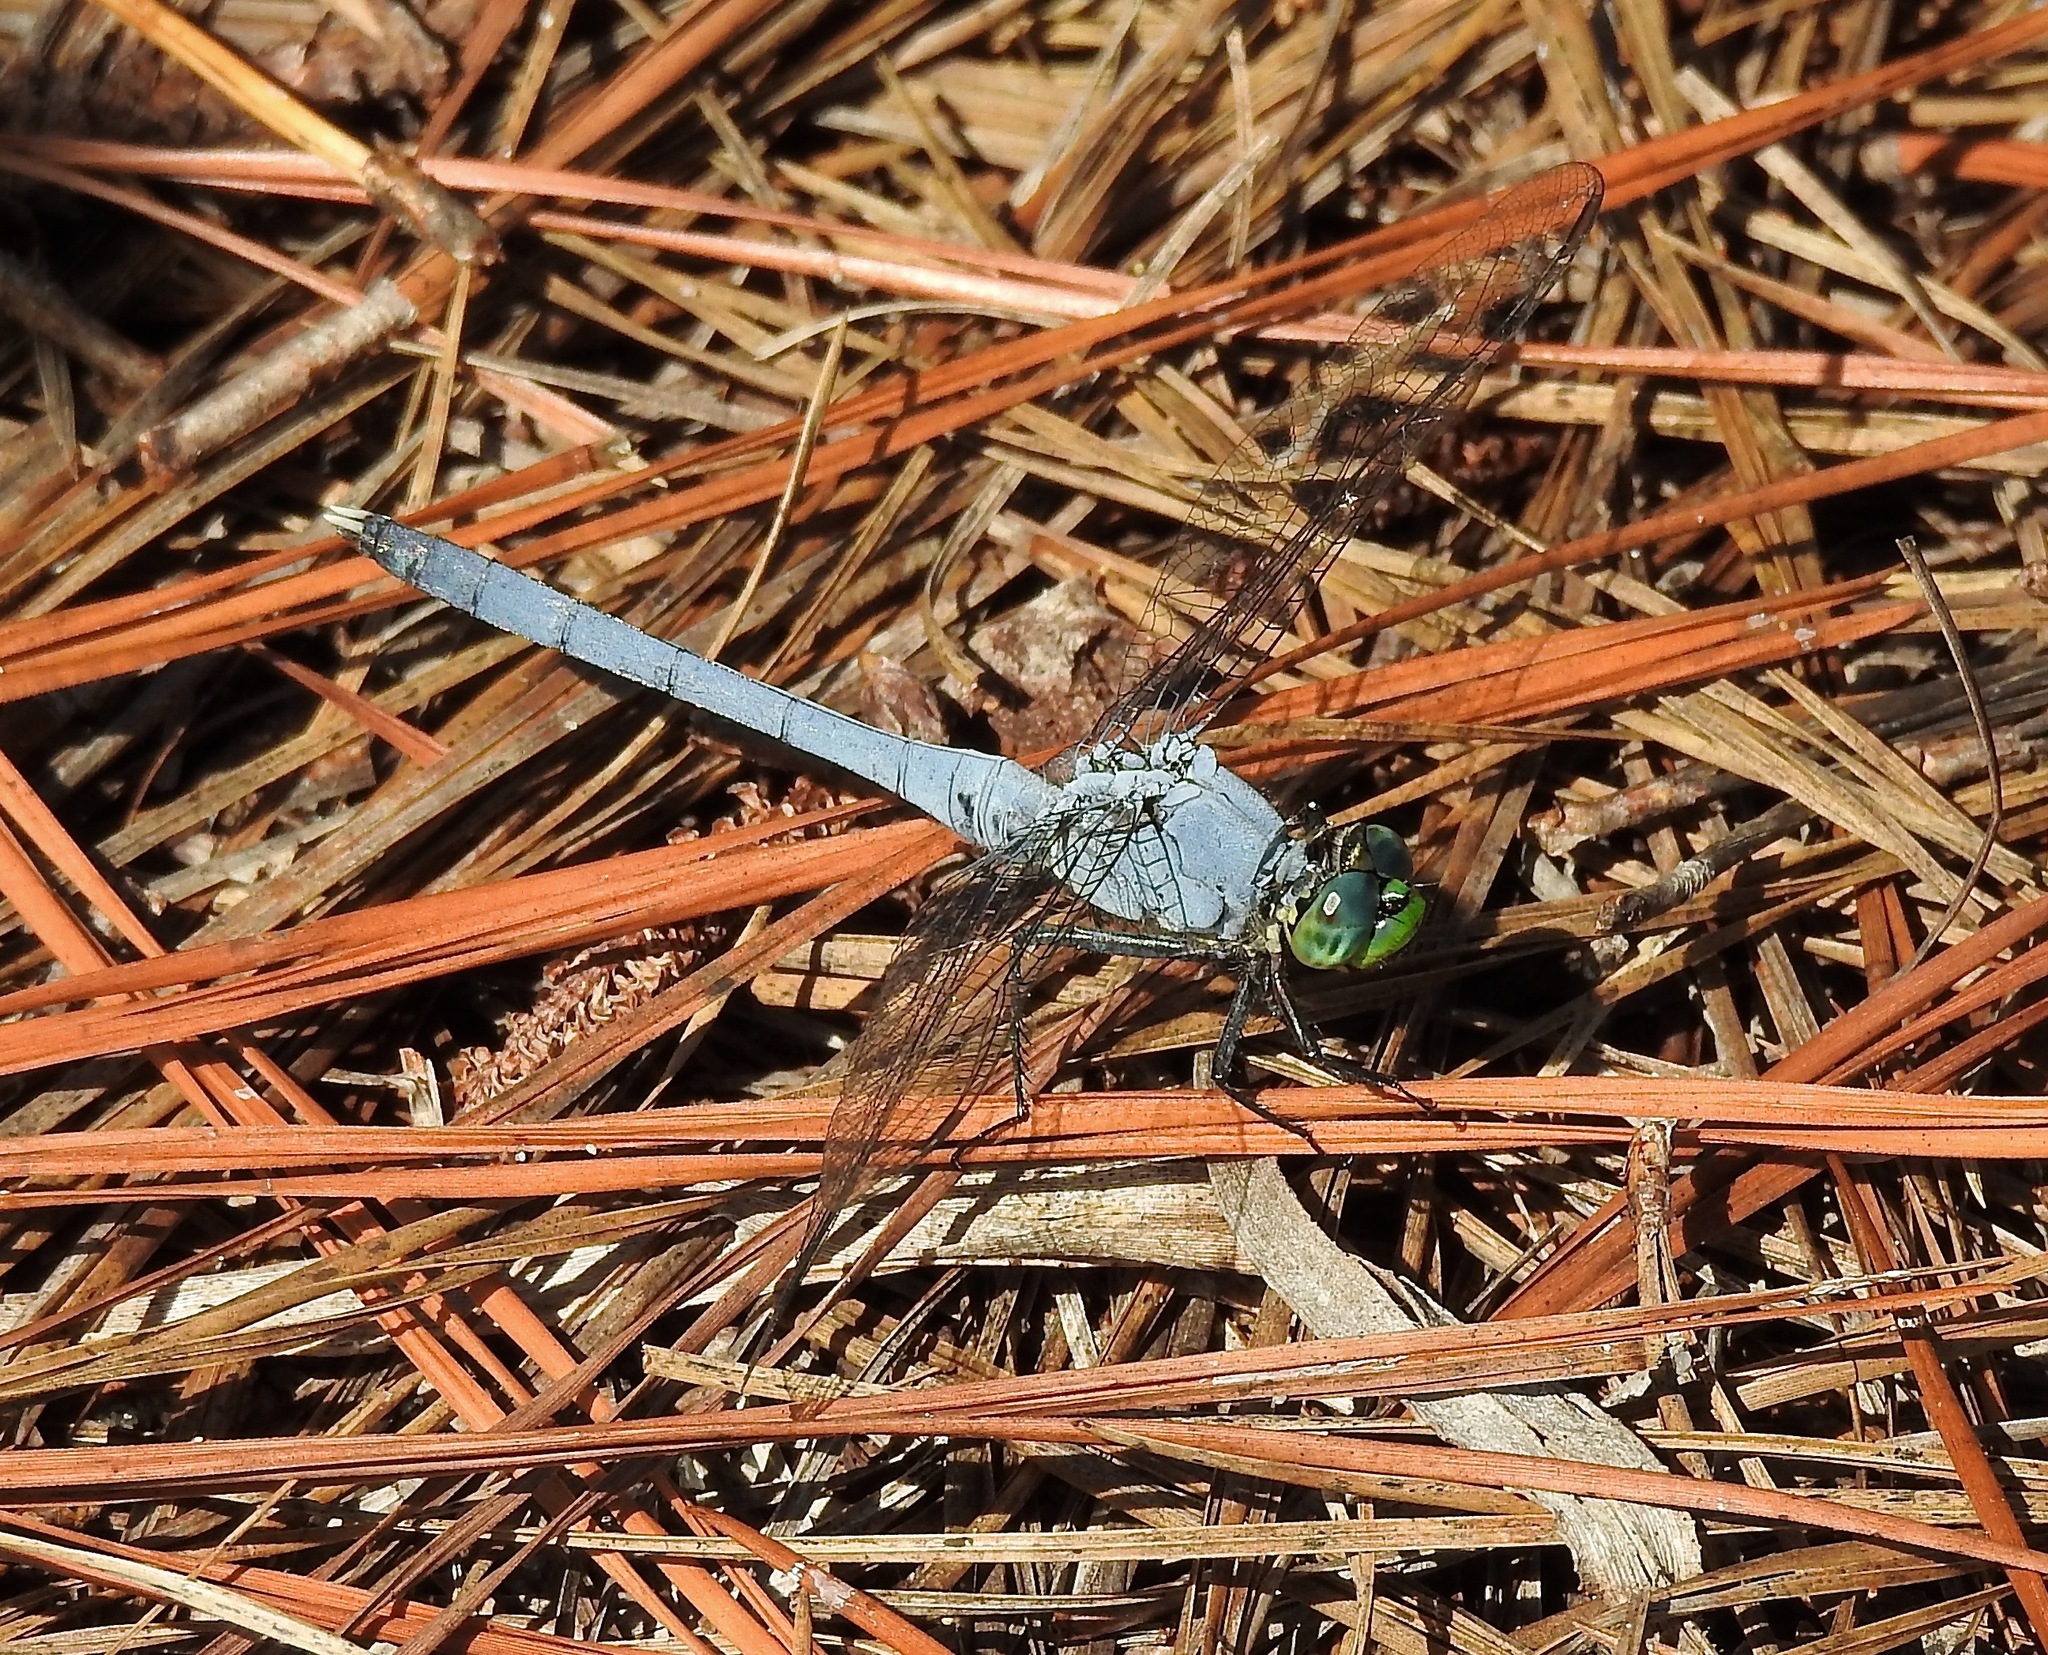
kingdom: Animalia
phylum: Arthropoda
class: Insecta
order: Odonata
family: Libellulidae
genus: Erythemis
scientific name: Erythemis simplicicollis
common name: Eastern pondhawk
